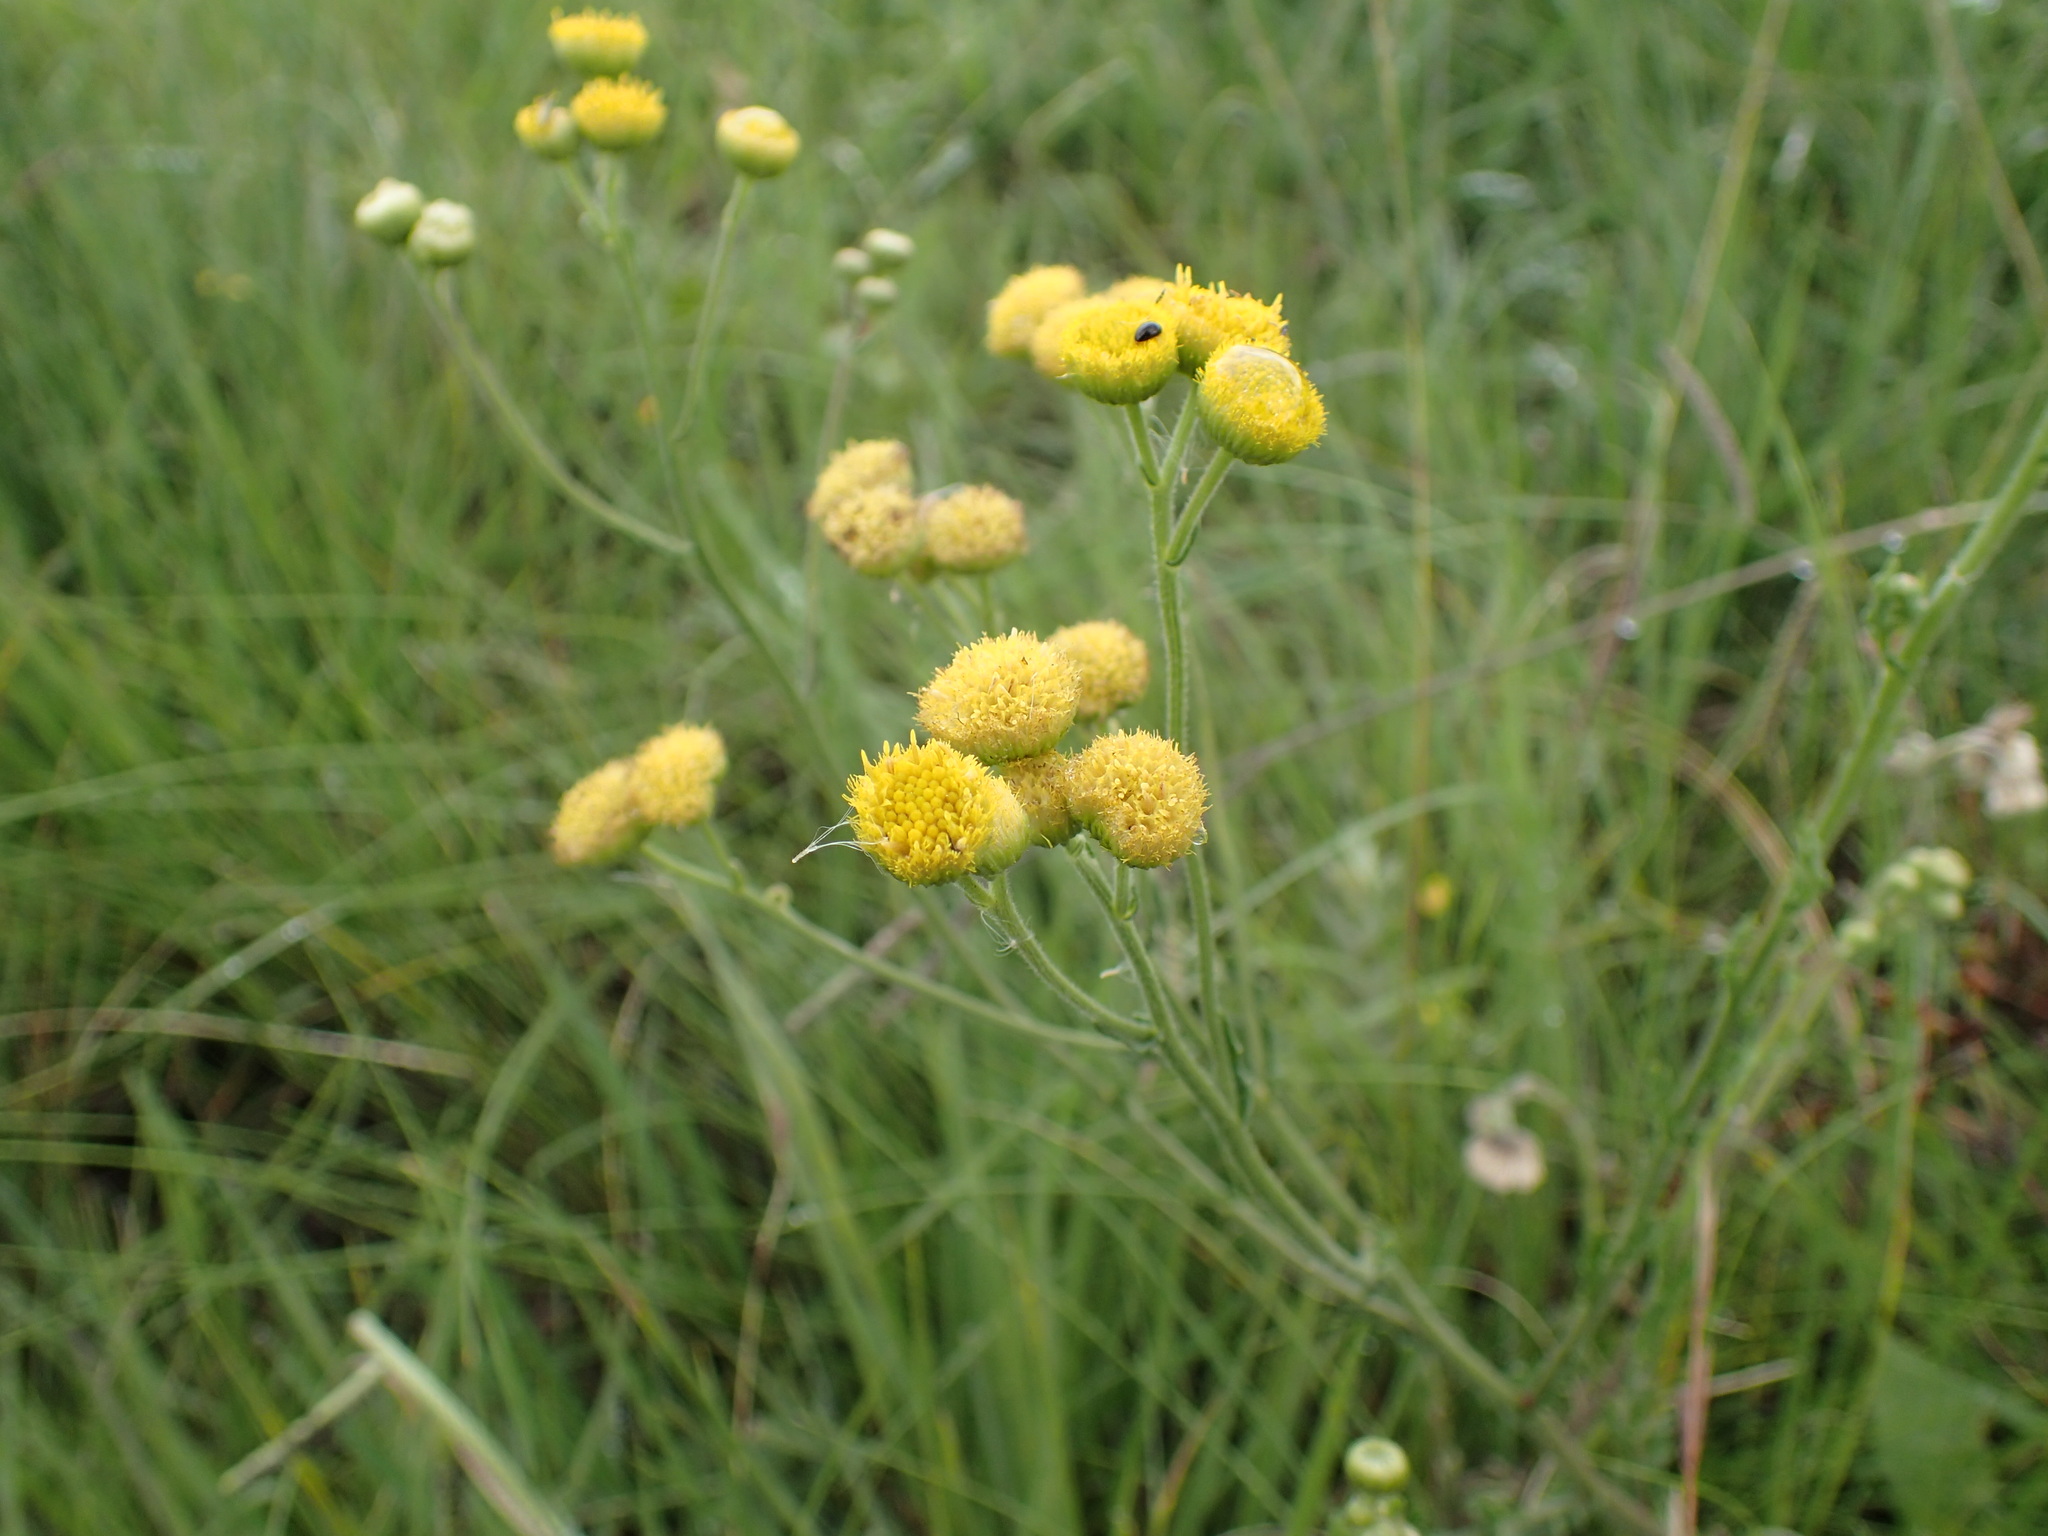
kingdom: Plantae
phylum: Tracheophyta
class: Magnoliopsida
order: Asterales
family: Asteraceae
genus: Nidorella
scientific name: Nidorella pinnata
